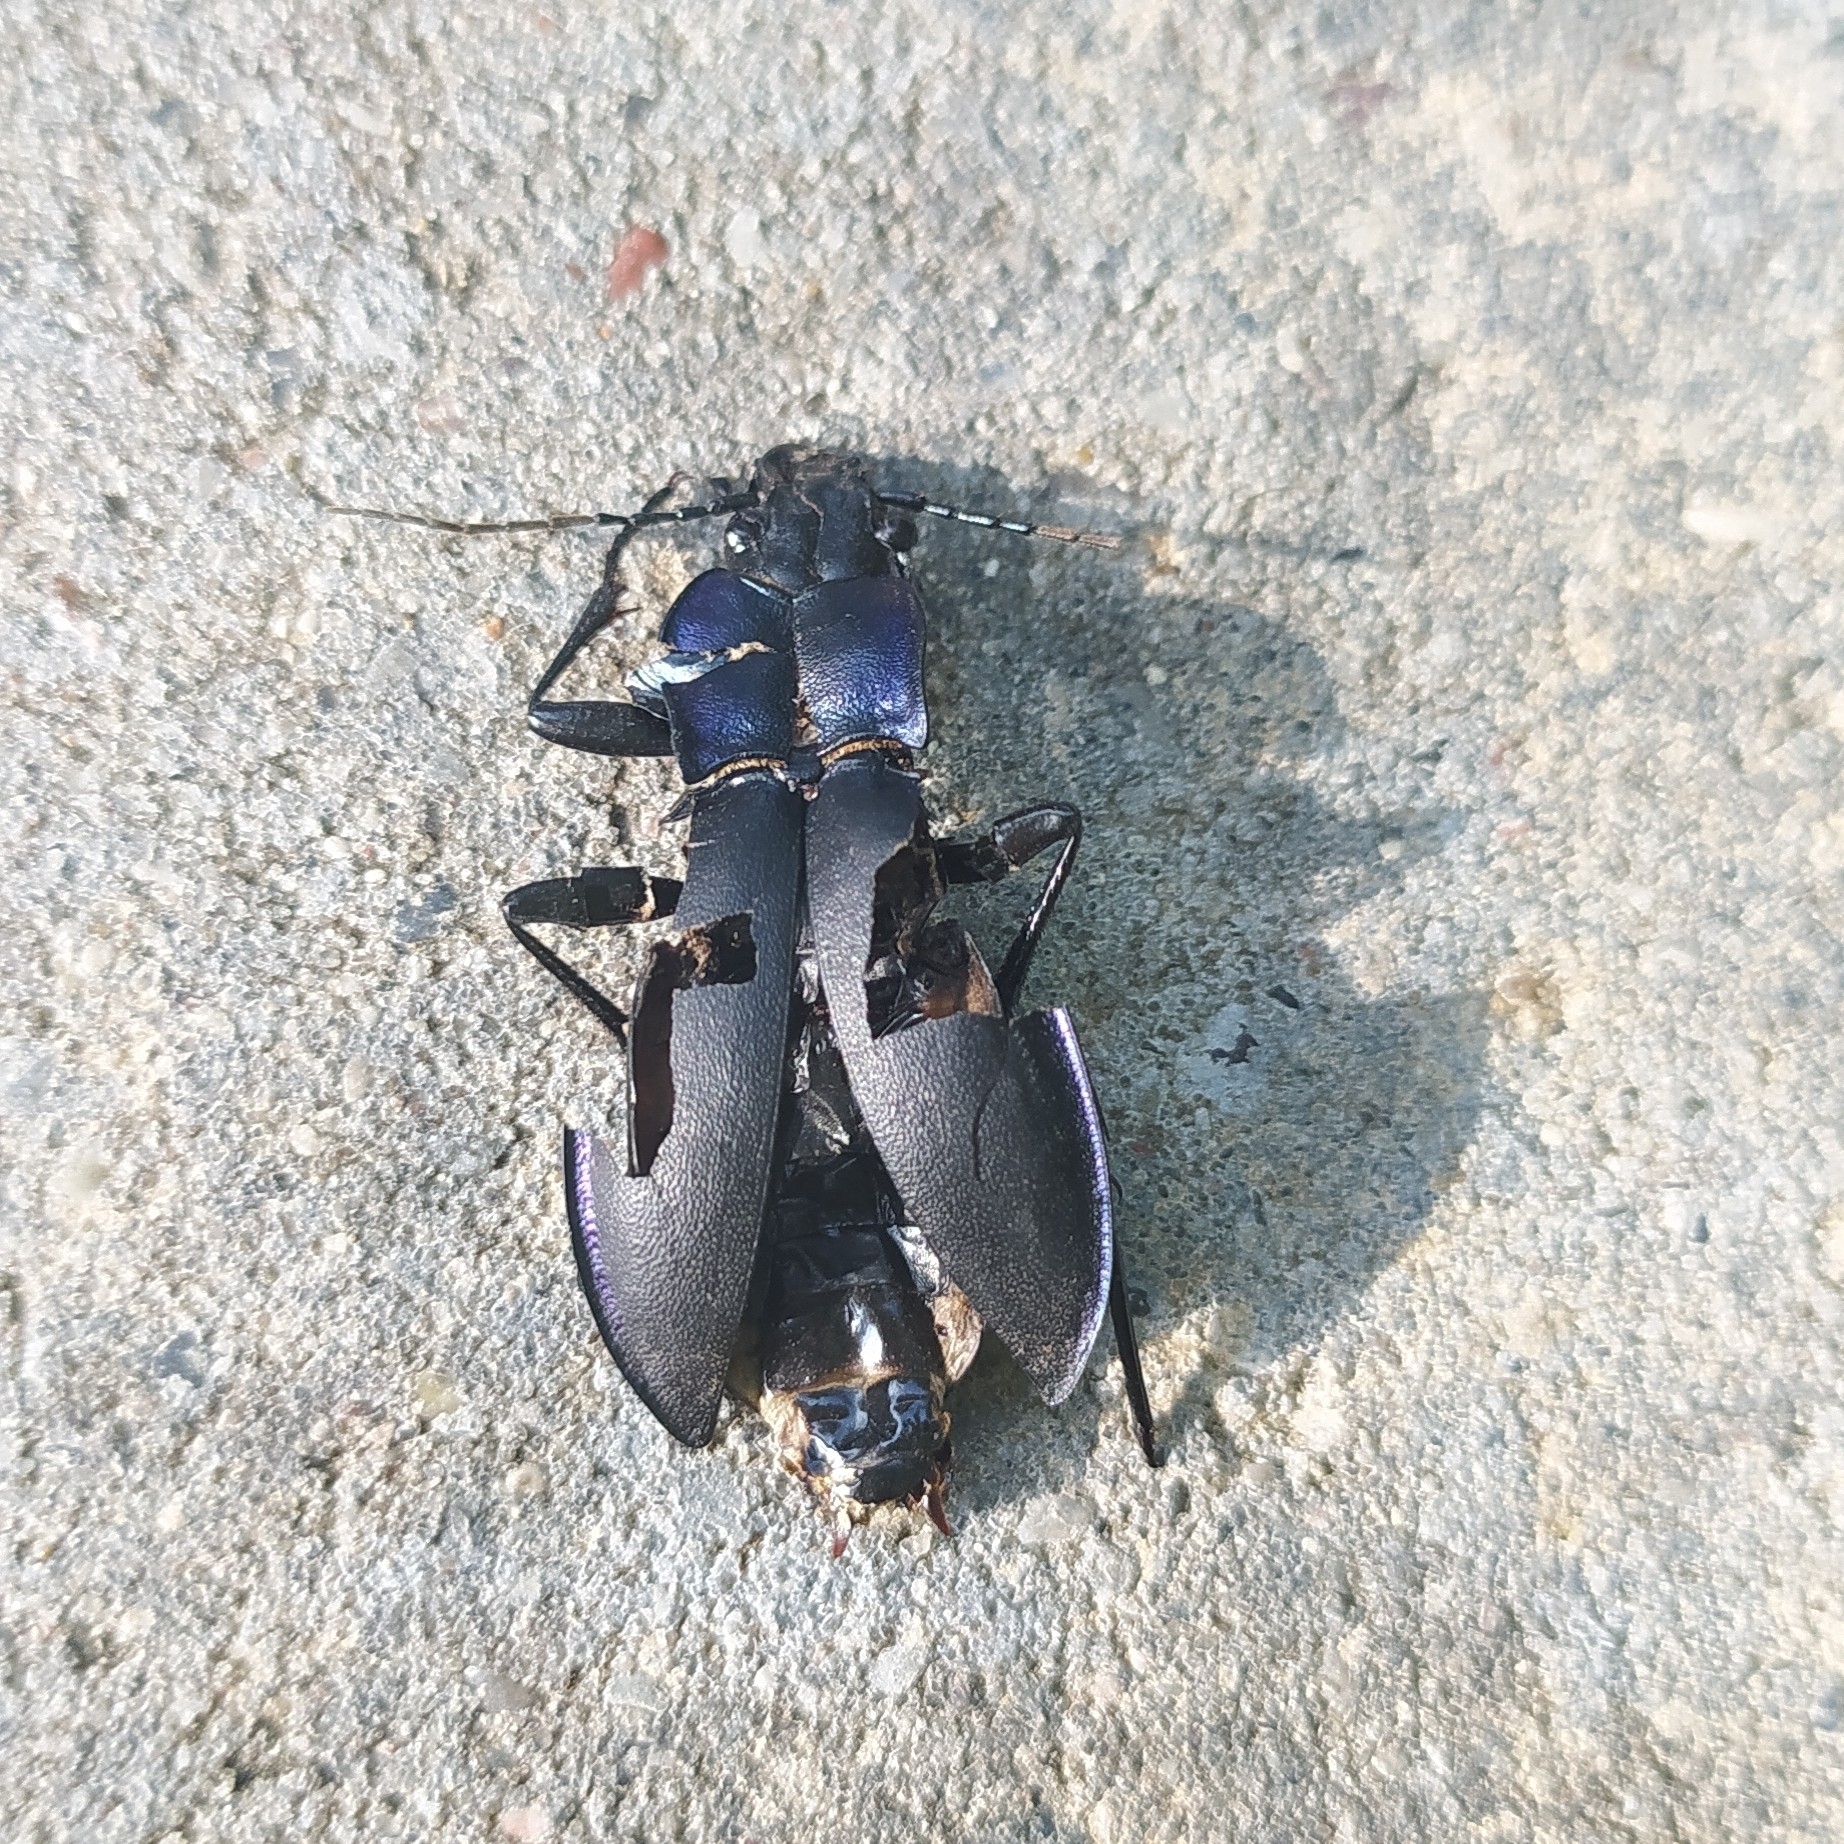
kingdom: Animalia
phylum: Arthropoda
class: Insecta
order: Coleoptera
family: Carabidae
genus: Carabus
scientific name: Carabus violaceus
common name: Violet ground beetle
